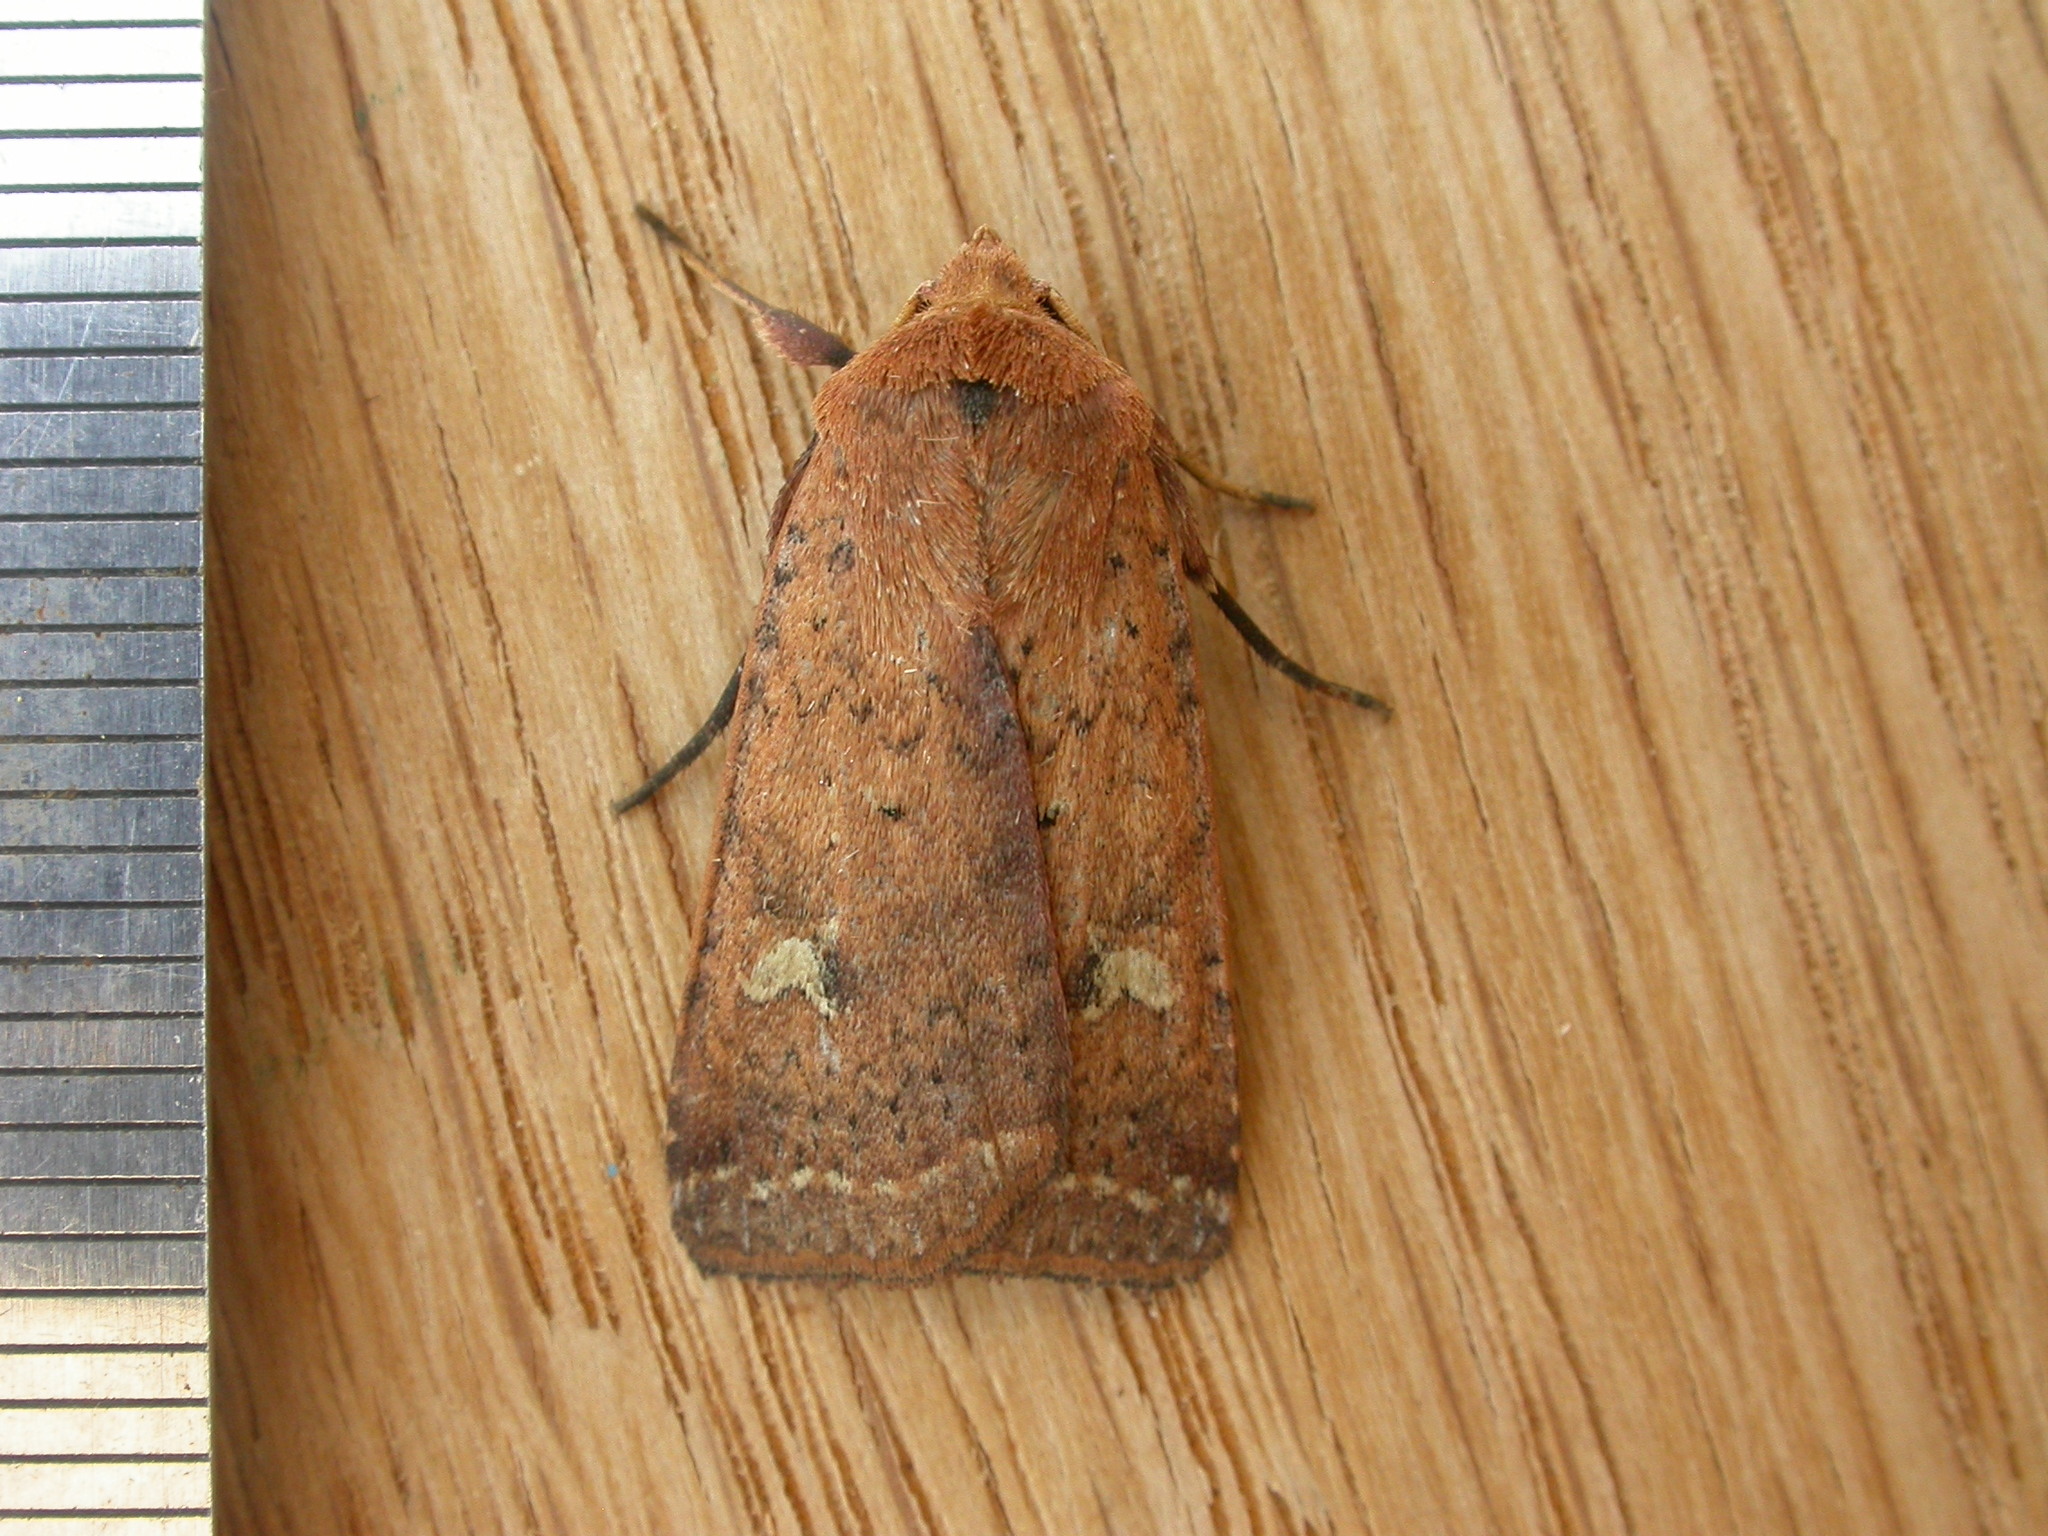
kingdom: Animalia
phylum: Arthropoda
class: Insecta
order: Lepidoptera
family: Noctuidae
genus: Diarsia
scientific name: Diarsia intermixta
